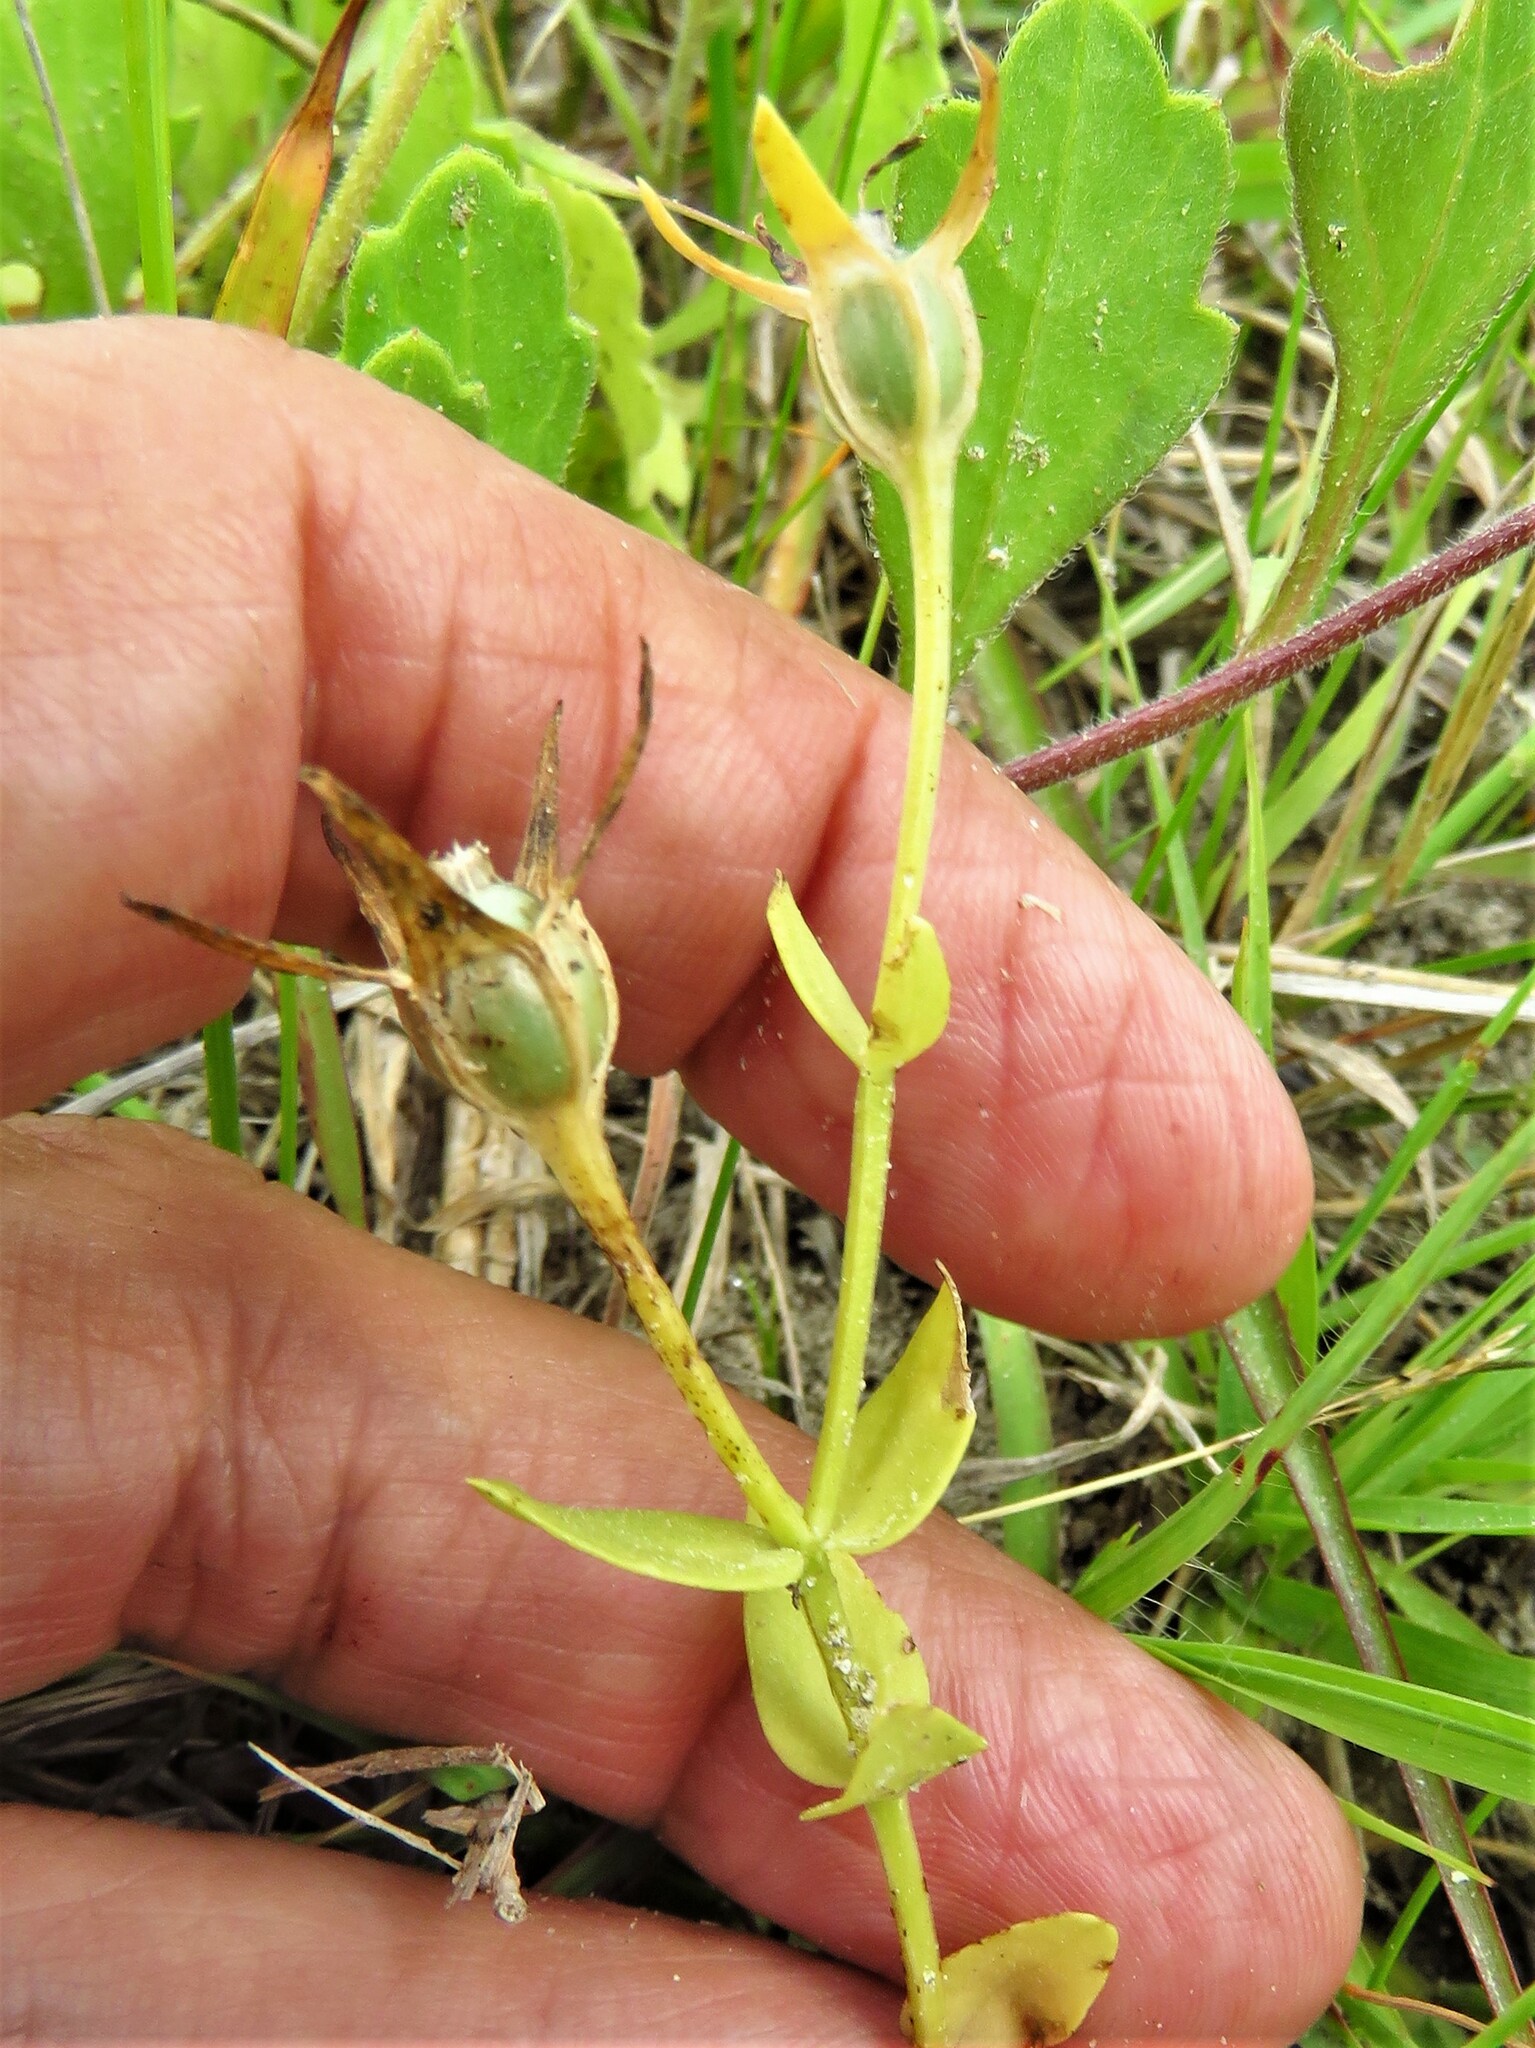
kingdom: Plantae
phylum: Tracheophyta
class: Magnoliopsida
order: Gentianales
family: Gentianaceae
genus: Sabatia
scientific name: Sabatia campestris
